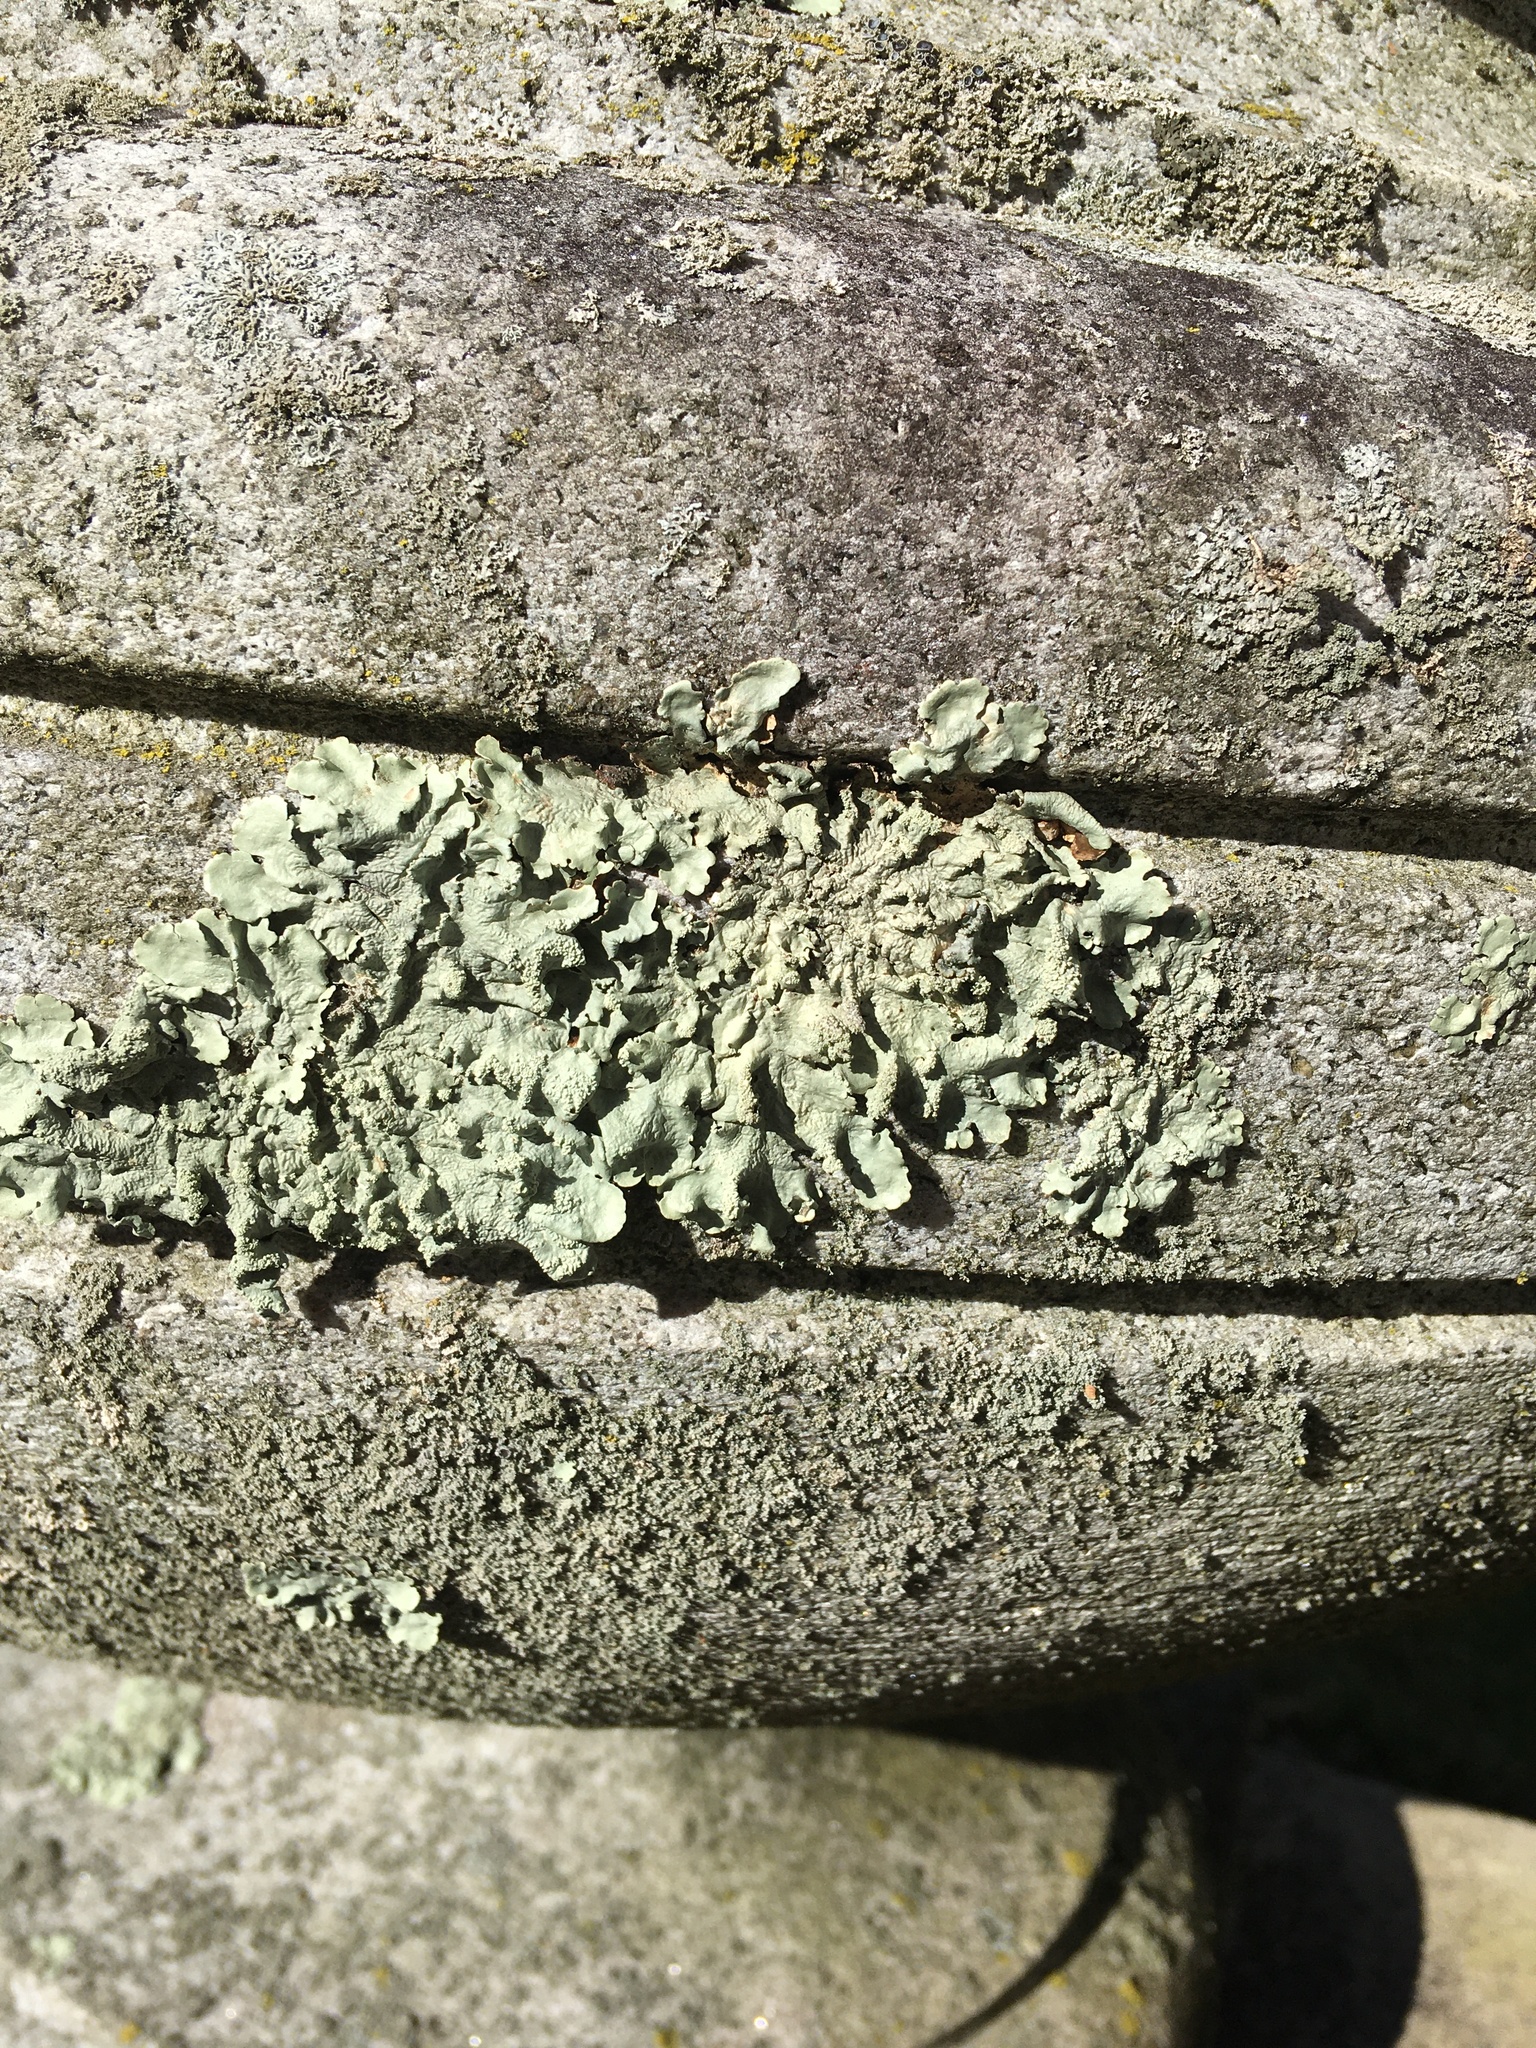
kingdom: Fungi
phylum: Ascomycota
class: Lecanoromycetes
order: Lecanorales
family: Parmeliaceae
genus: Flavoparmelia
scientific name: Flavoparmelia caperata
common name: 40-mile per hour lichen
